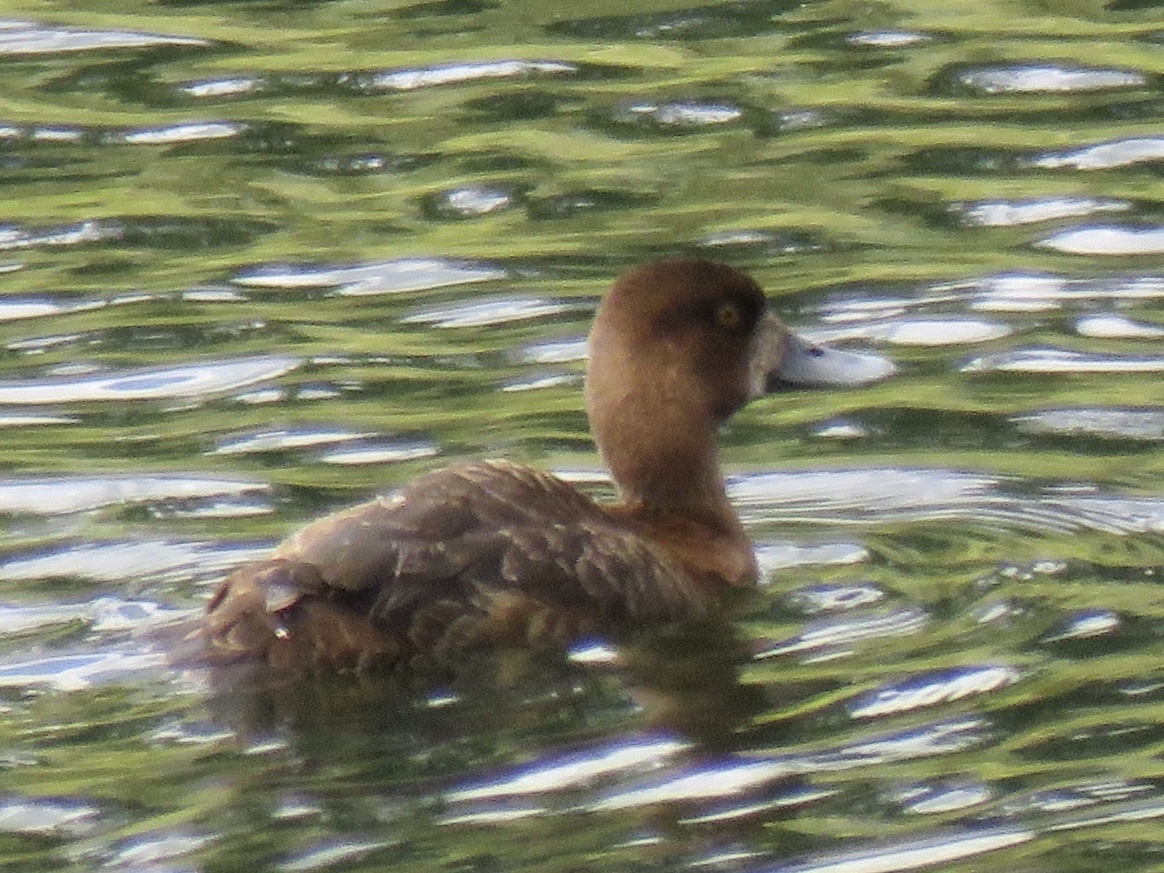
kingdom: Animalia
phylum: Chordata
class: Aves
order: Anseriformes
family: Anatidae
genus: Aythya
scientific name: Aythya affinis
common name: Lesser scaup
